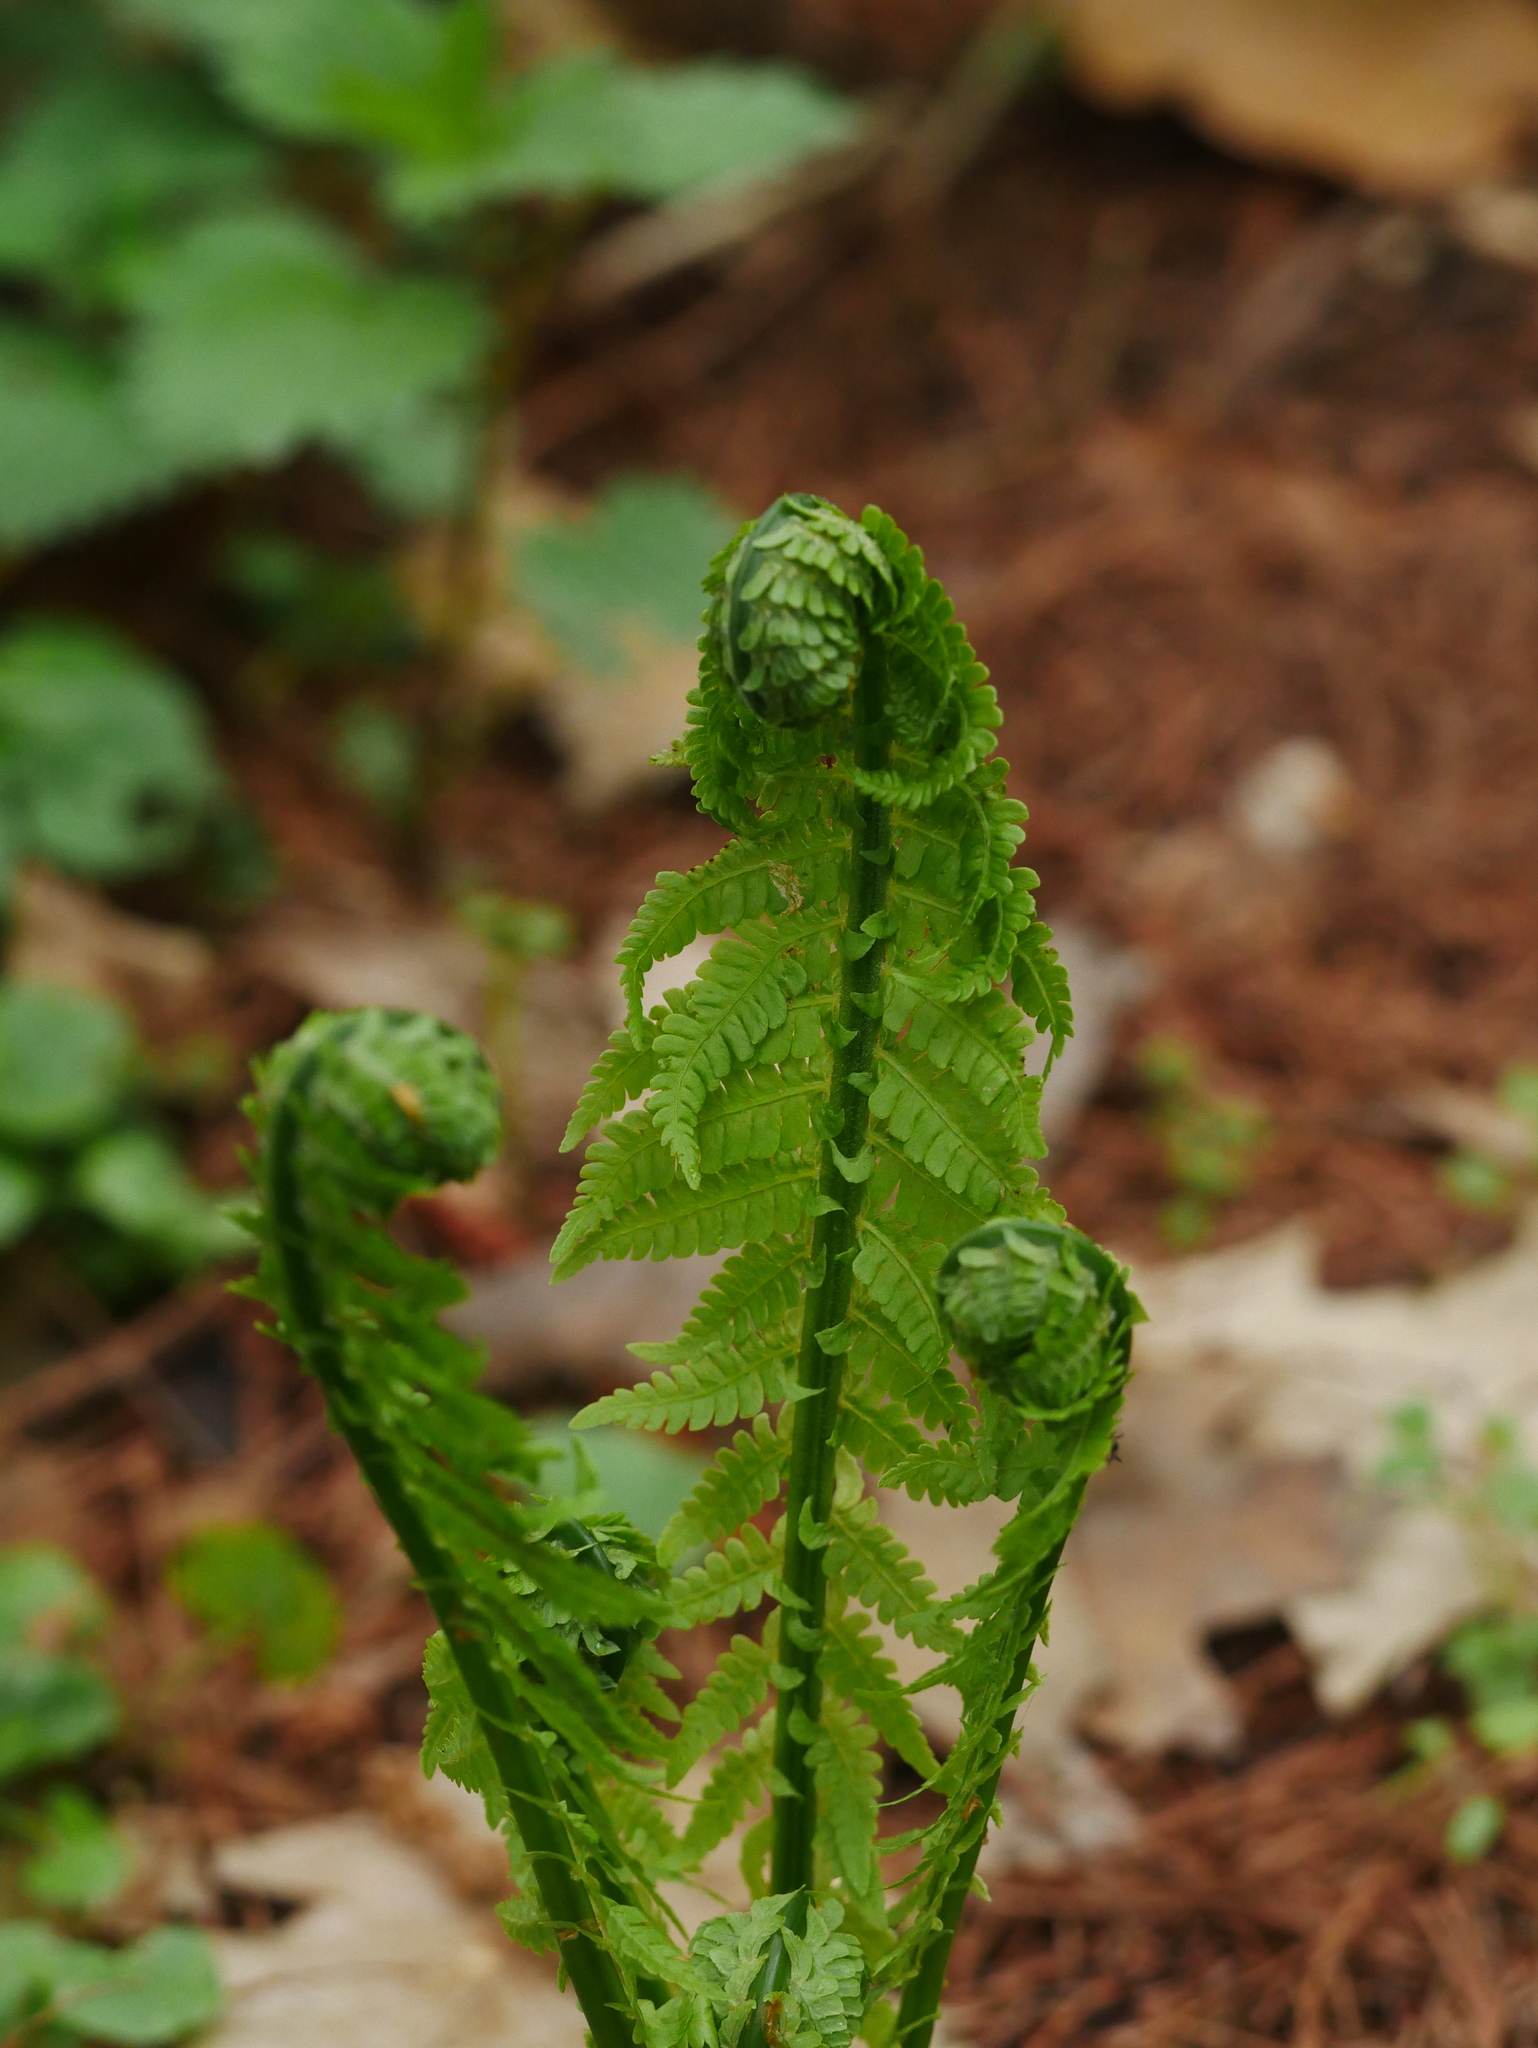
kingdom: Plantae
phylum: Tracheophyta
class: Polypodiopsida
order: Polypodiales
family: Onocleaceae
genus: Matteuccia
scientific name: Matteuccia struthiopteris
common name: Ostrich fern
